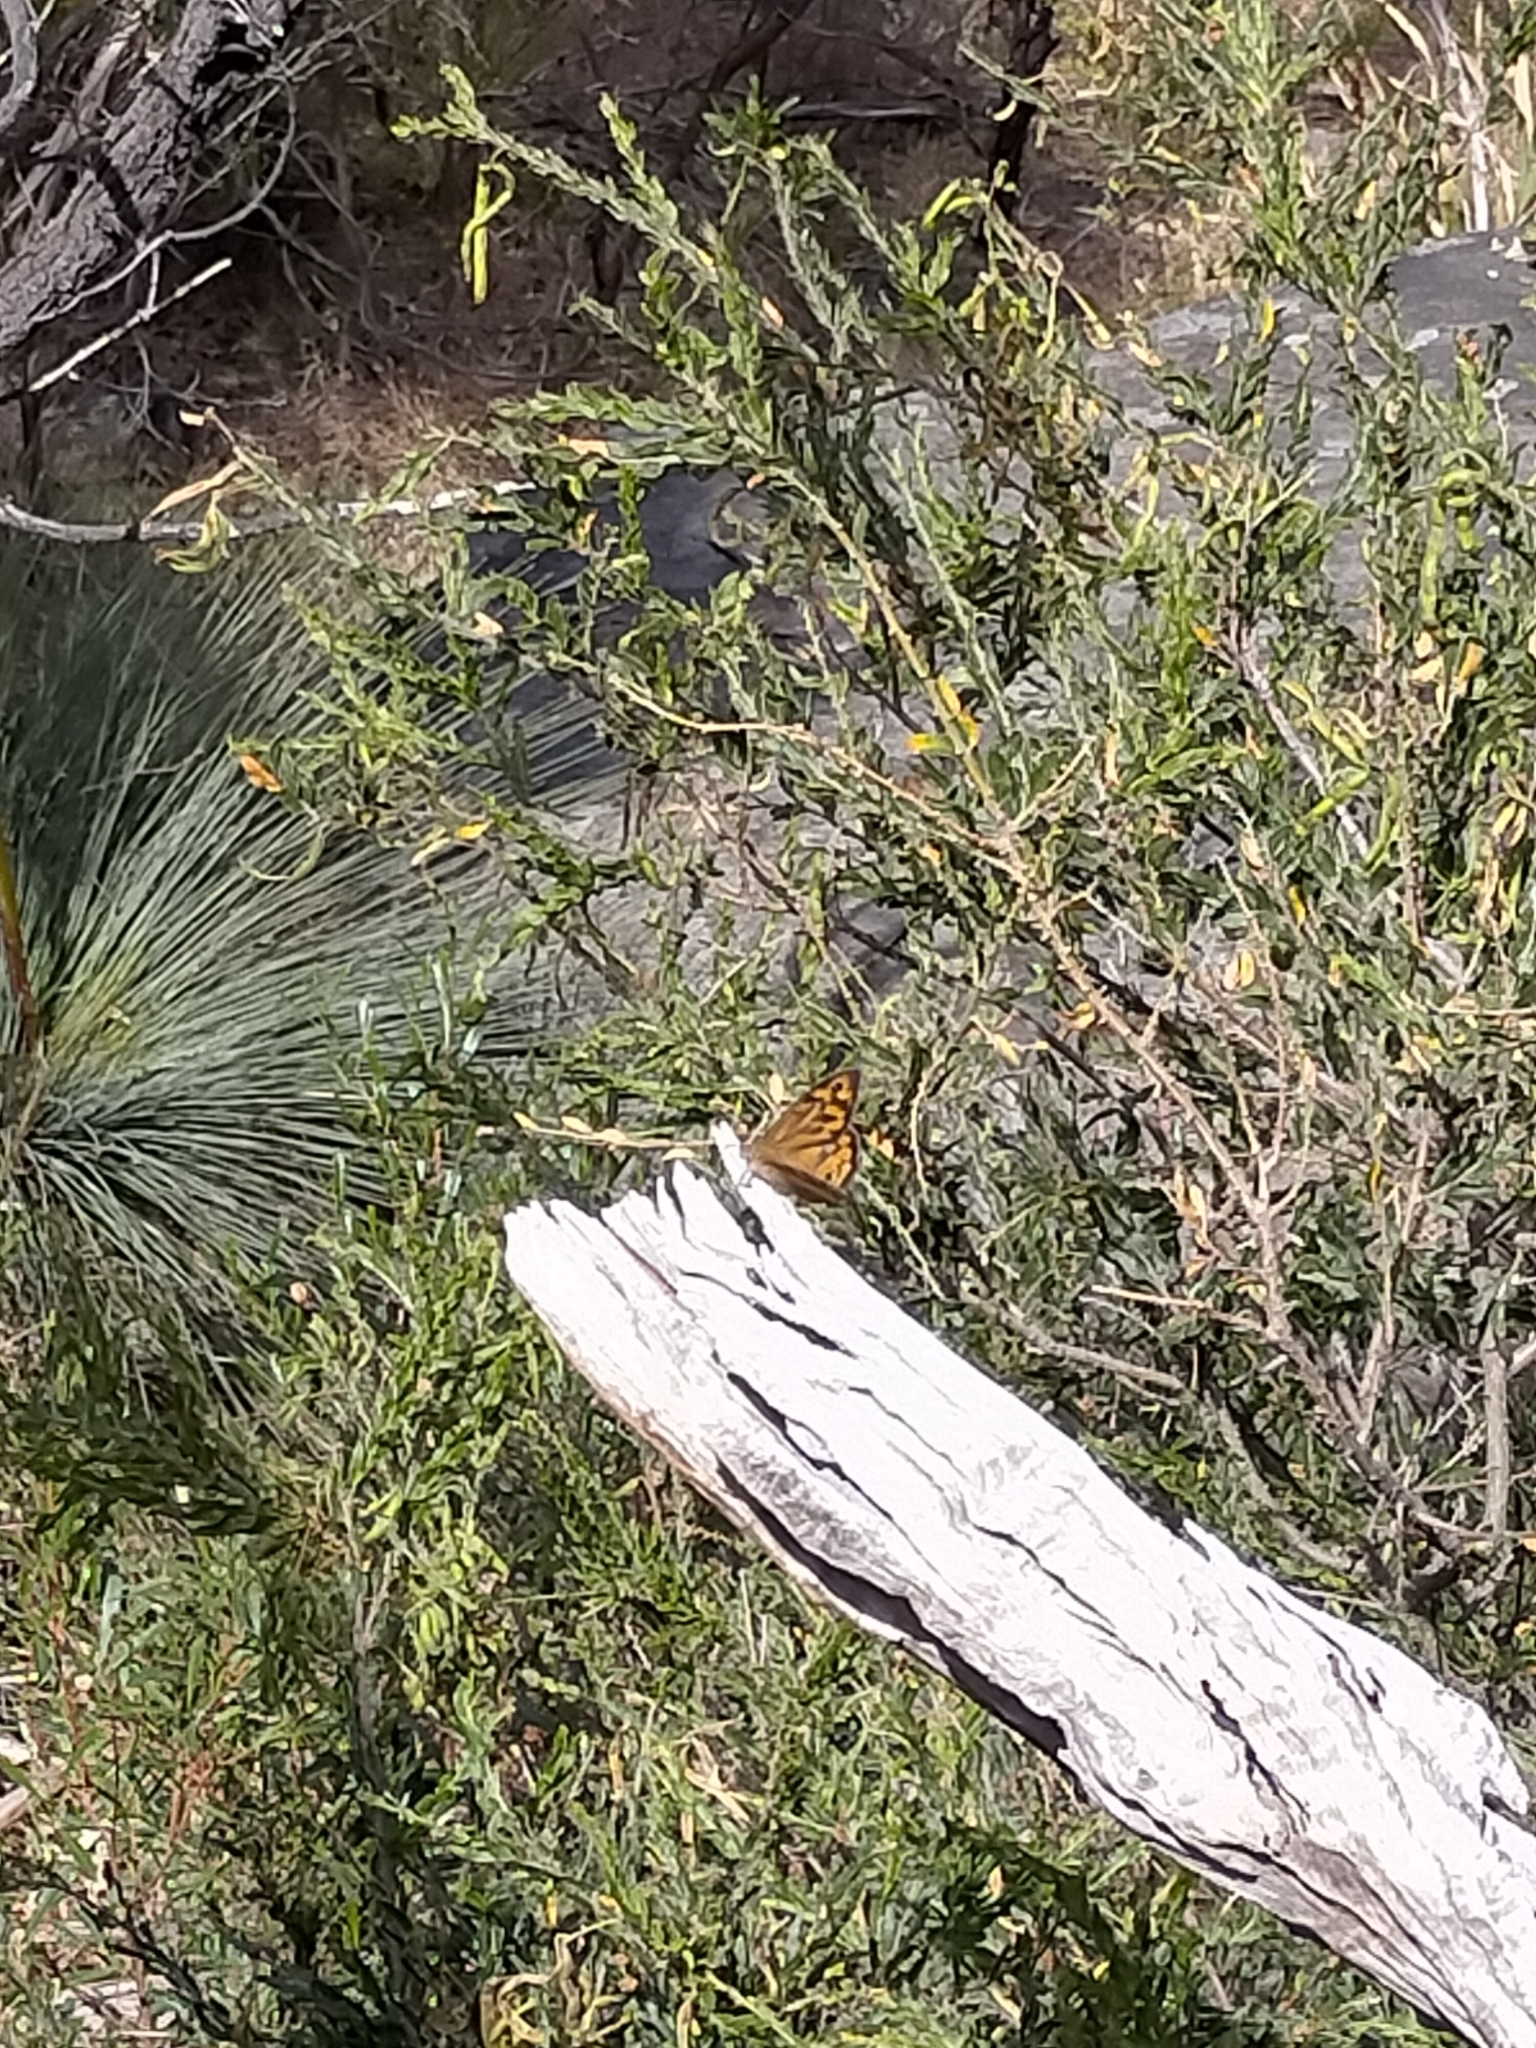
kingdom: Animalia
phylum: Arthropoda
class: Insecta
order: Lepidoptera
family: Nymphalidae
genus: Heteronympha
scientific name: Heteronympha merope
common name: Common brown
